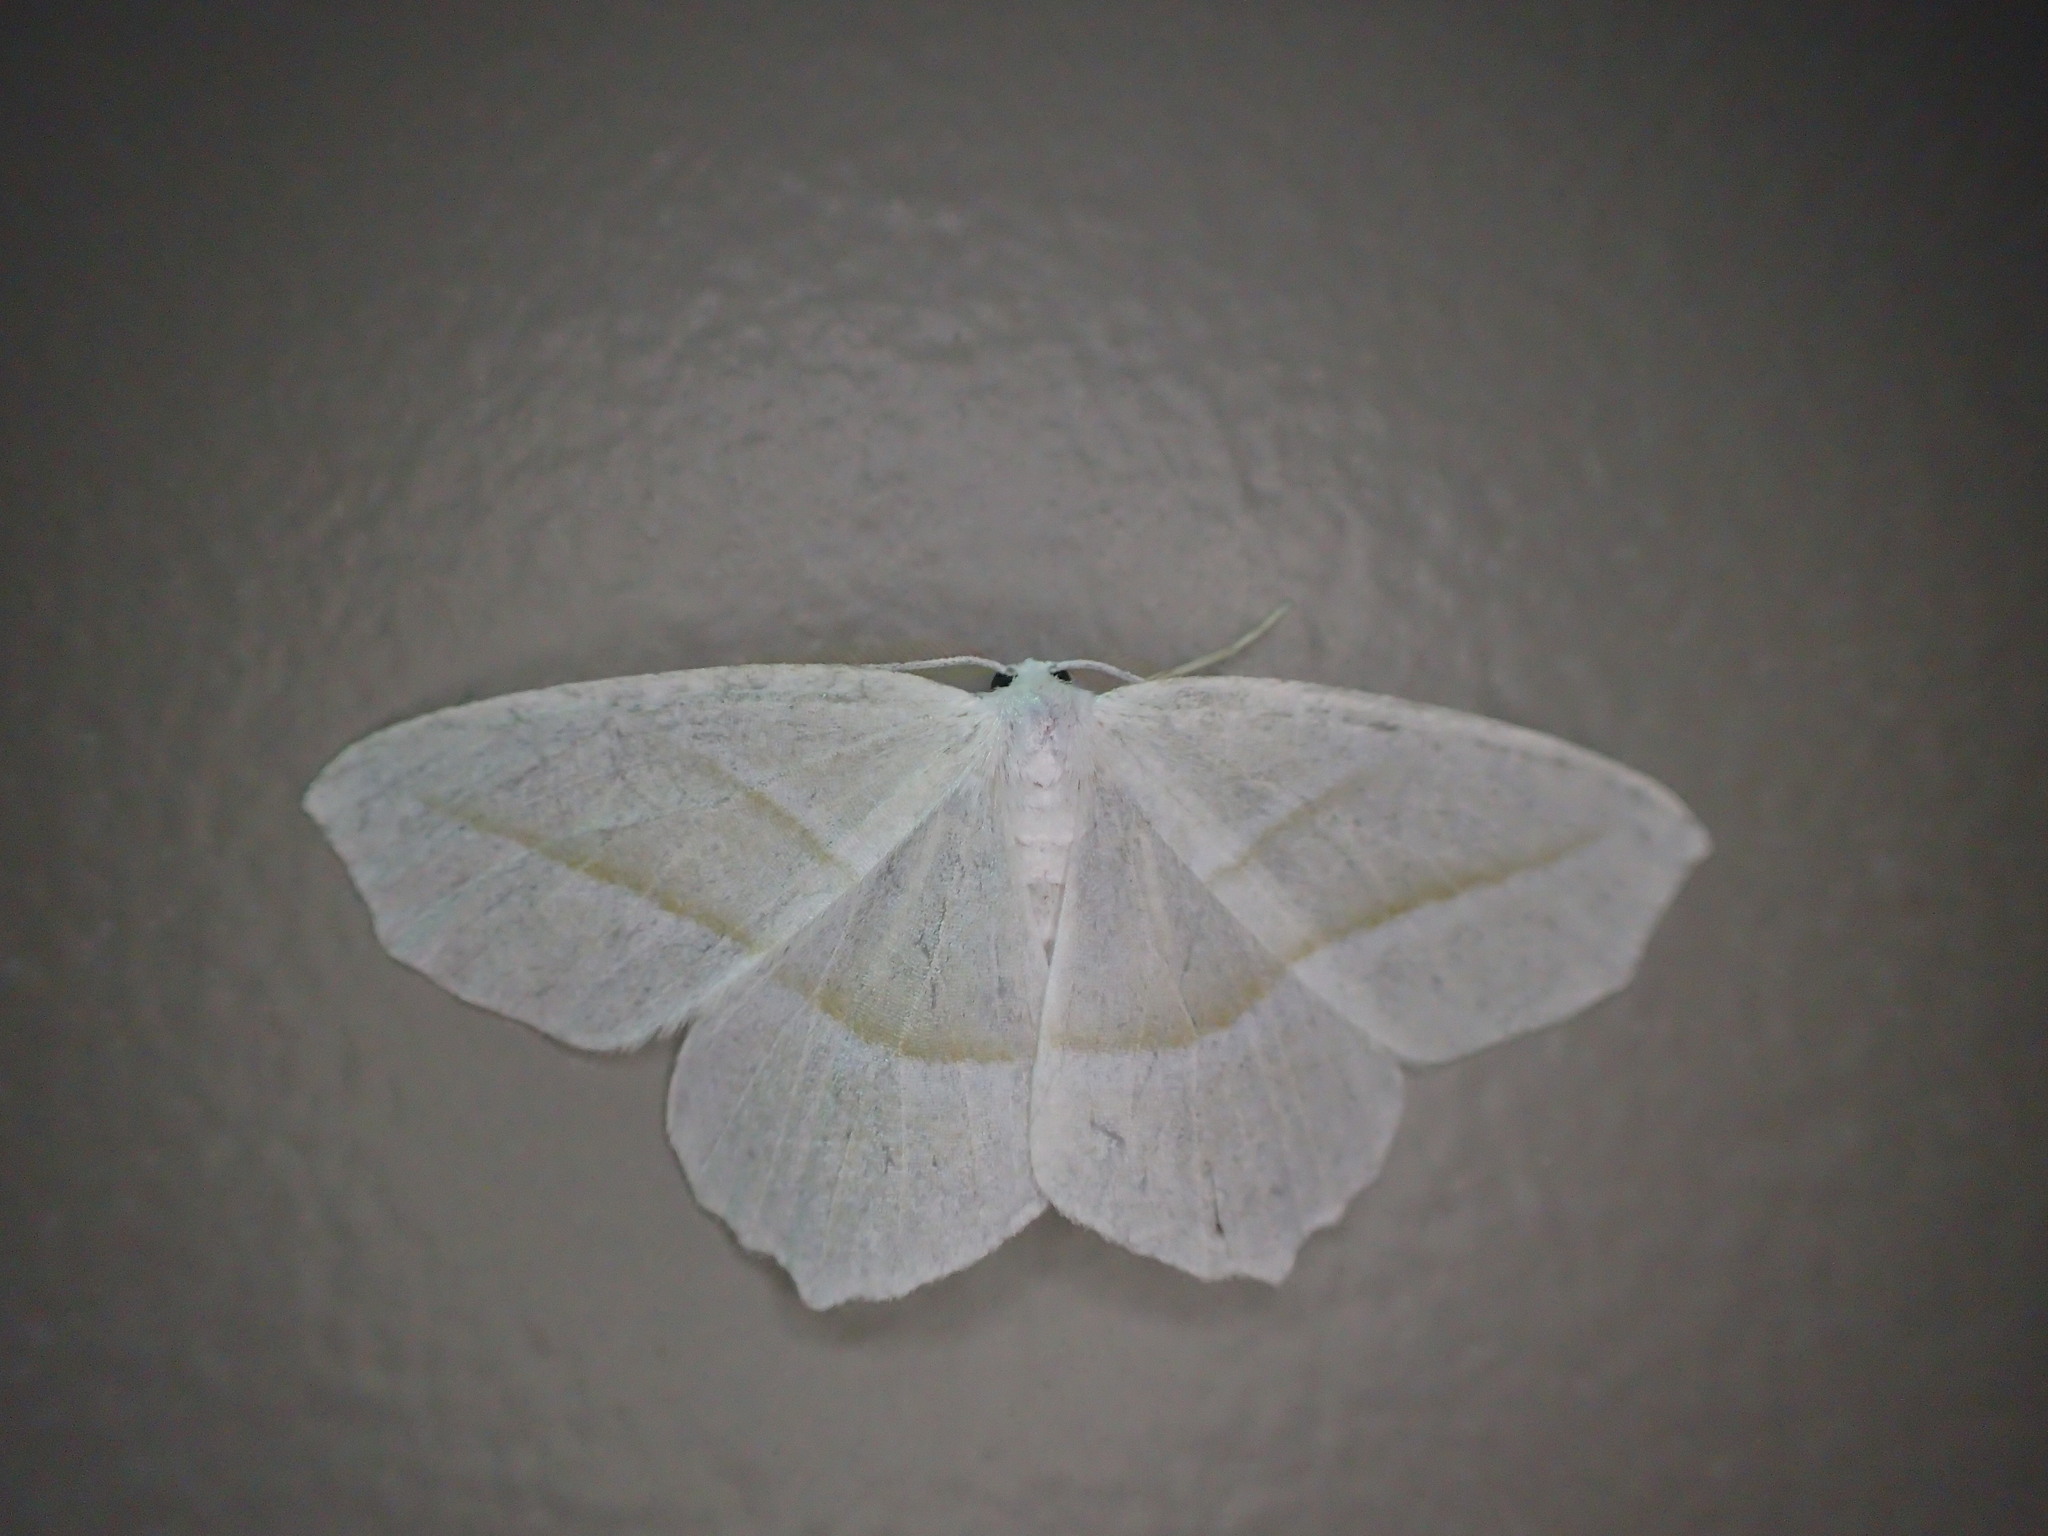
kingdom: Animalia
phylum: Arthropoda
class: Insecta
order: Lepidoptera
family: Geometridae
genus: Campaea
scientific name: Campaea perlata
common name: Fringed looper
